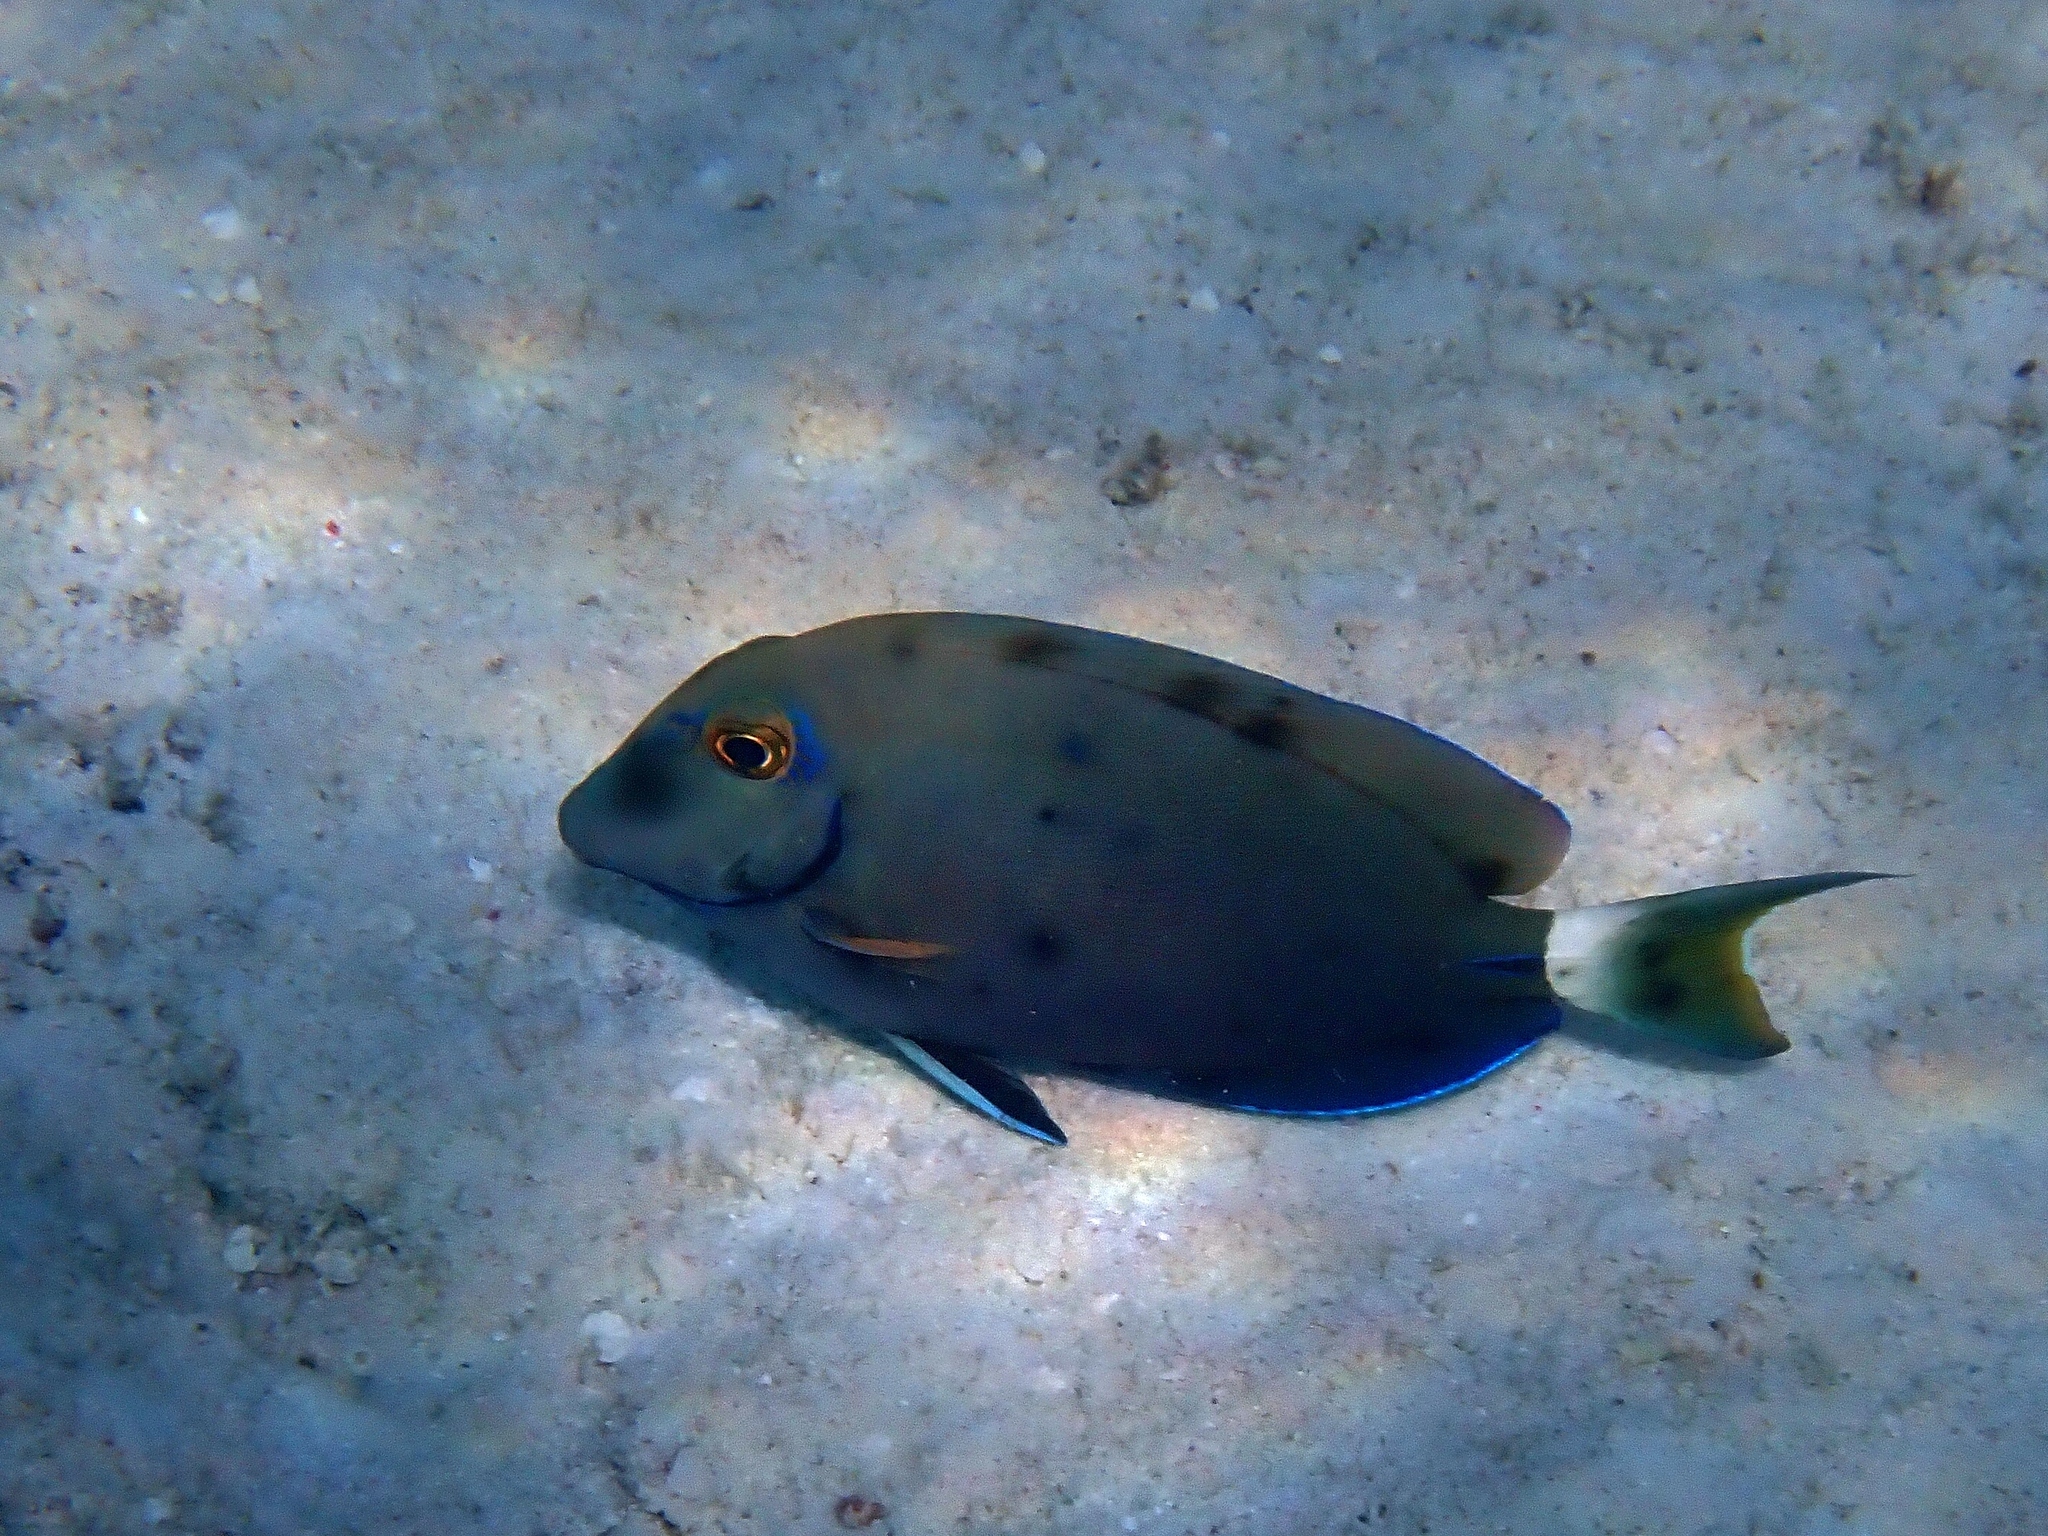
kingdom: Animalia
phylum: Chordata
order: Perciformes
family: Acanthuridae
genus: Acanthurus
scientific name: Acanthurus bahianus
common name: Ocean surgeon
